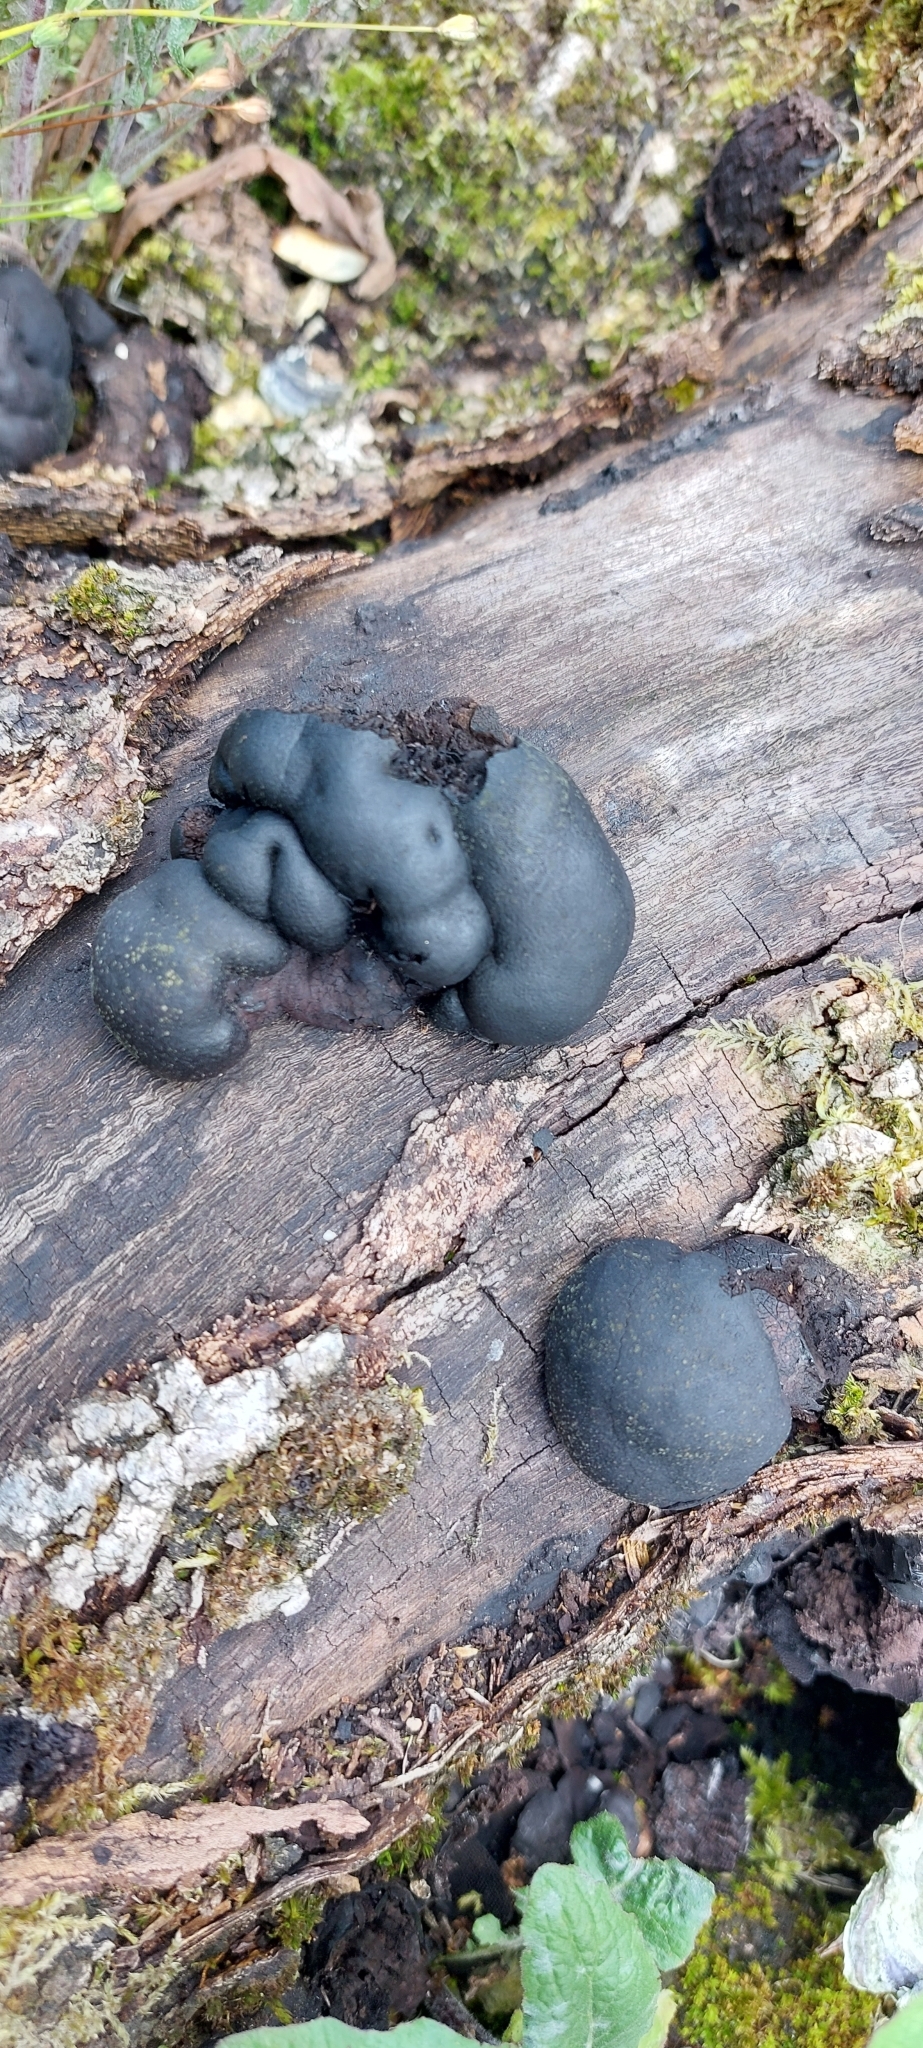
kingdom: Fungi
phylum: Ascomycota
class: Sordariomycetes
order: Xylariales
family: Hypoxylaceae
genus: Daldinia
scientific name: Daldinia concentrica
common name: Cramp balls
